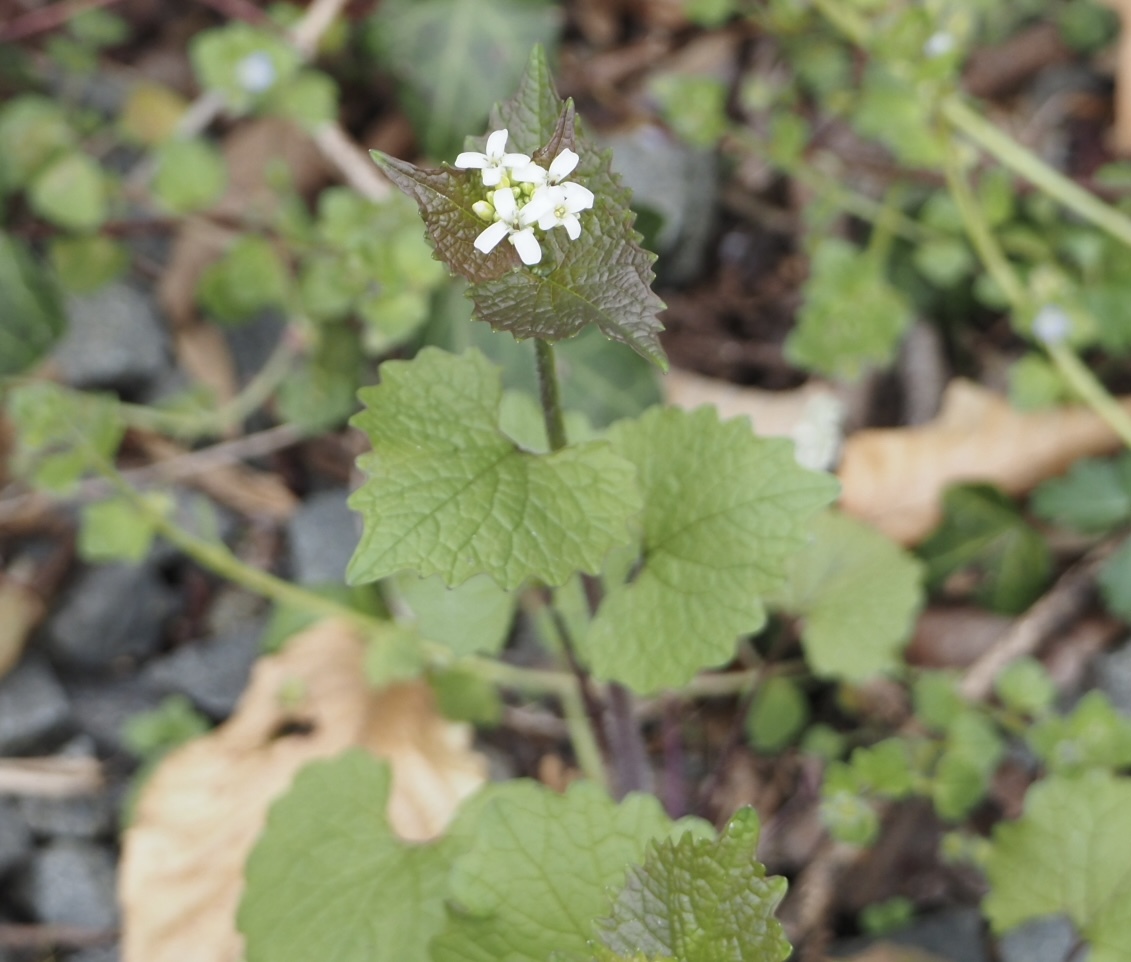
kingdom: Plantae
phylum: Tracheophyta
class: Magnoliopsida
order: Brassicales
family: Brassicaceae
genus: Alliaria
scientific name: Alliaria petiolata
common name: Garlic mustard
